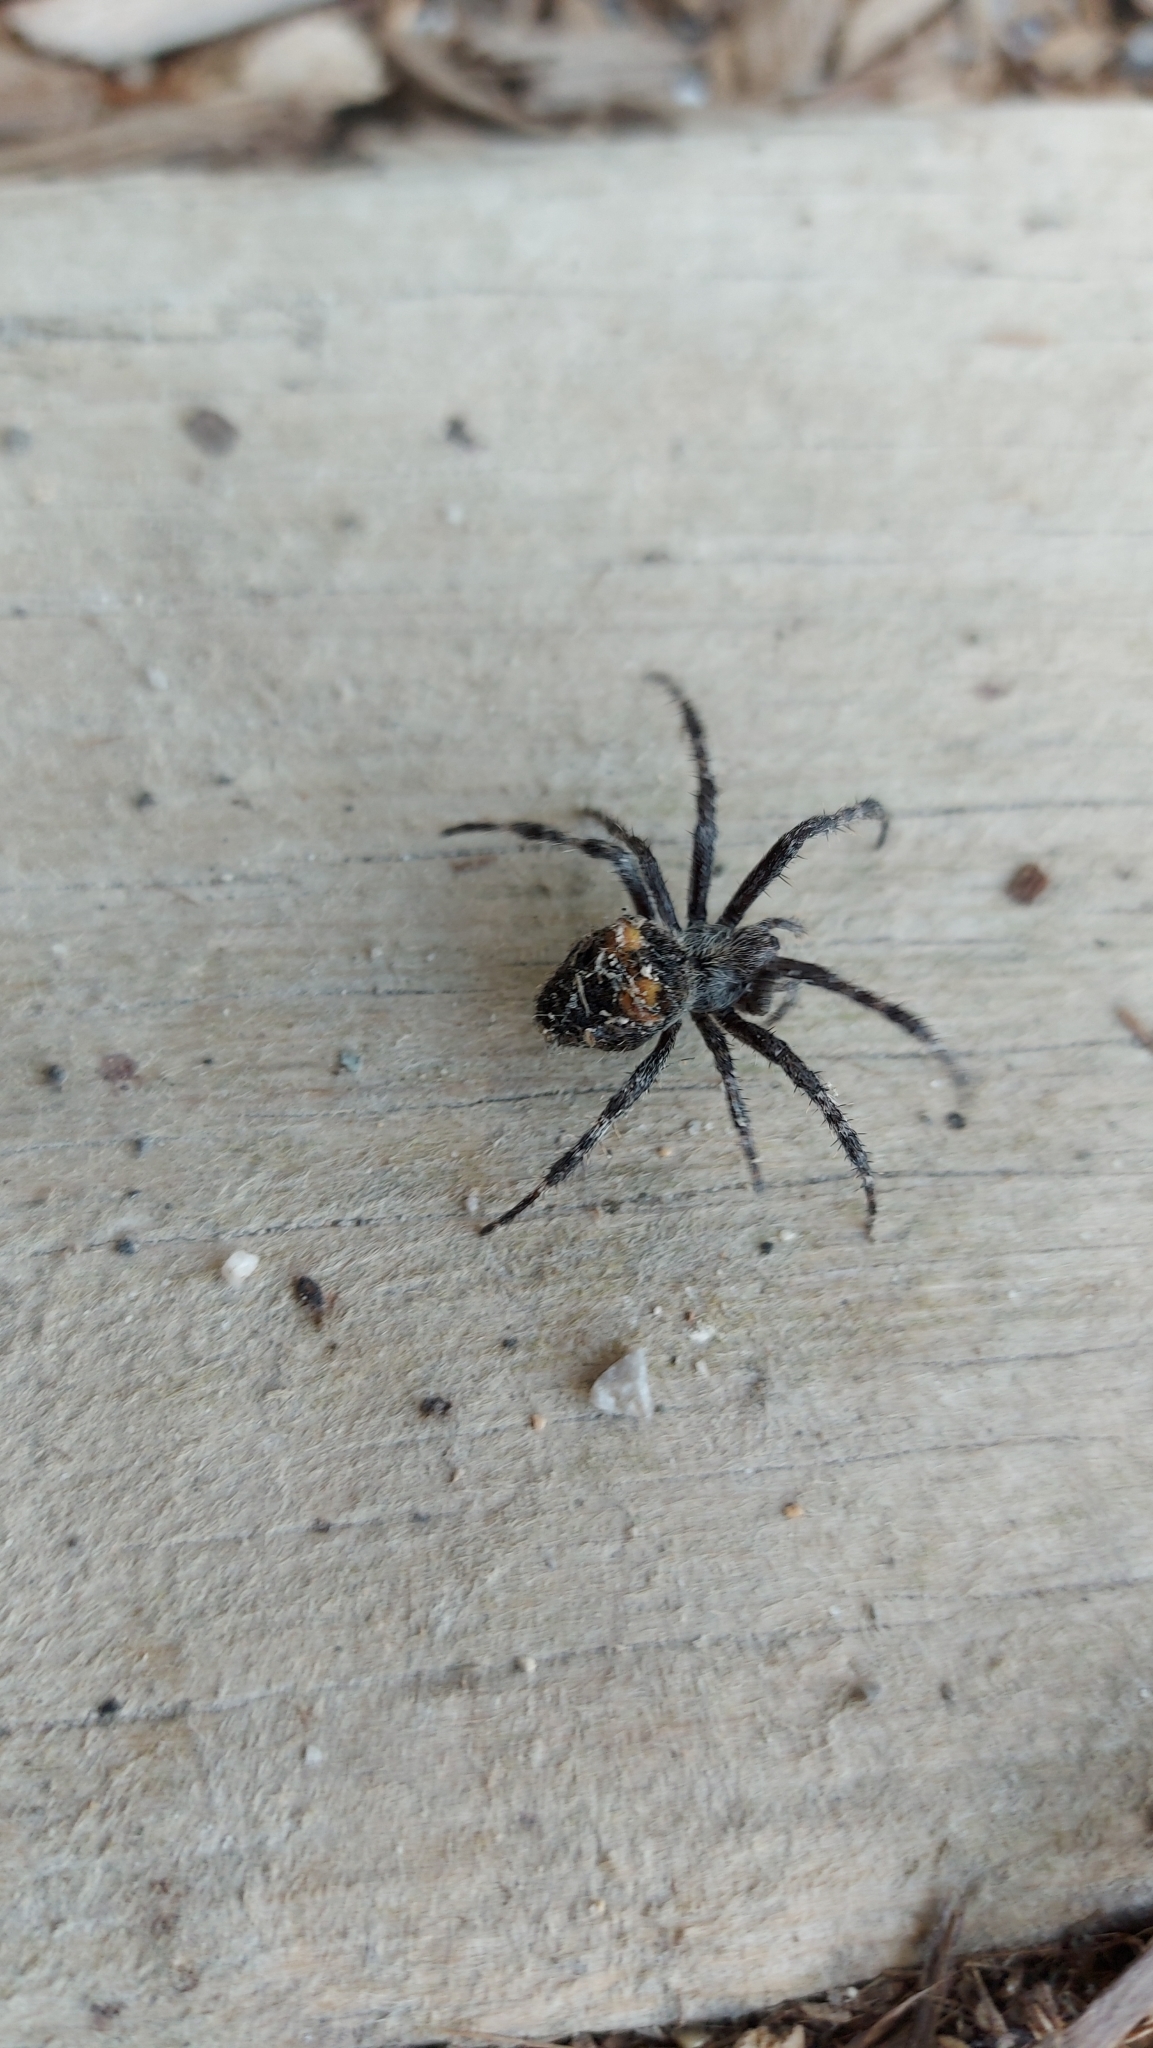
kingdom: Animalia
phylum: Arthropoda
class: Arachnida
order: Araneae
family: Araneidae
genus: Araneus
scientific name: Araneus saevus
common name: Fierce orbweaver
